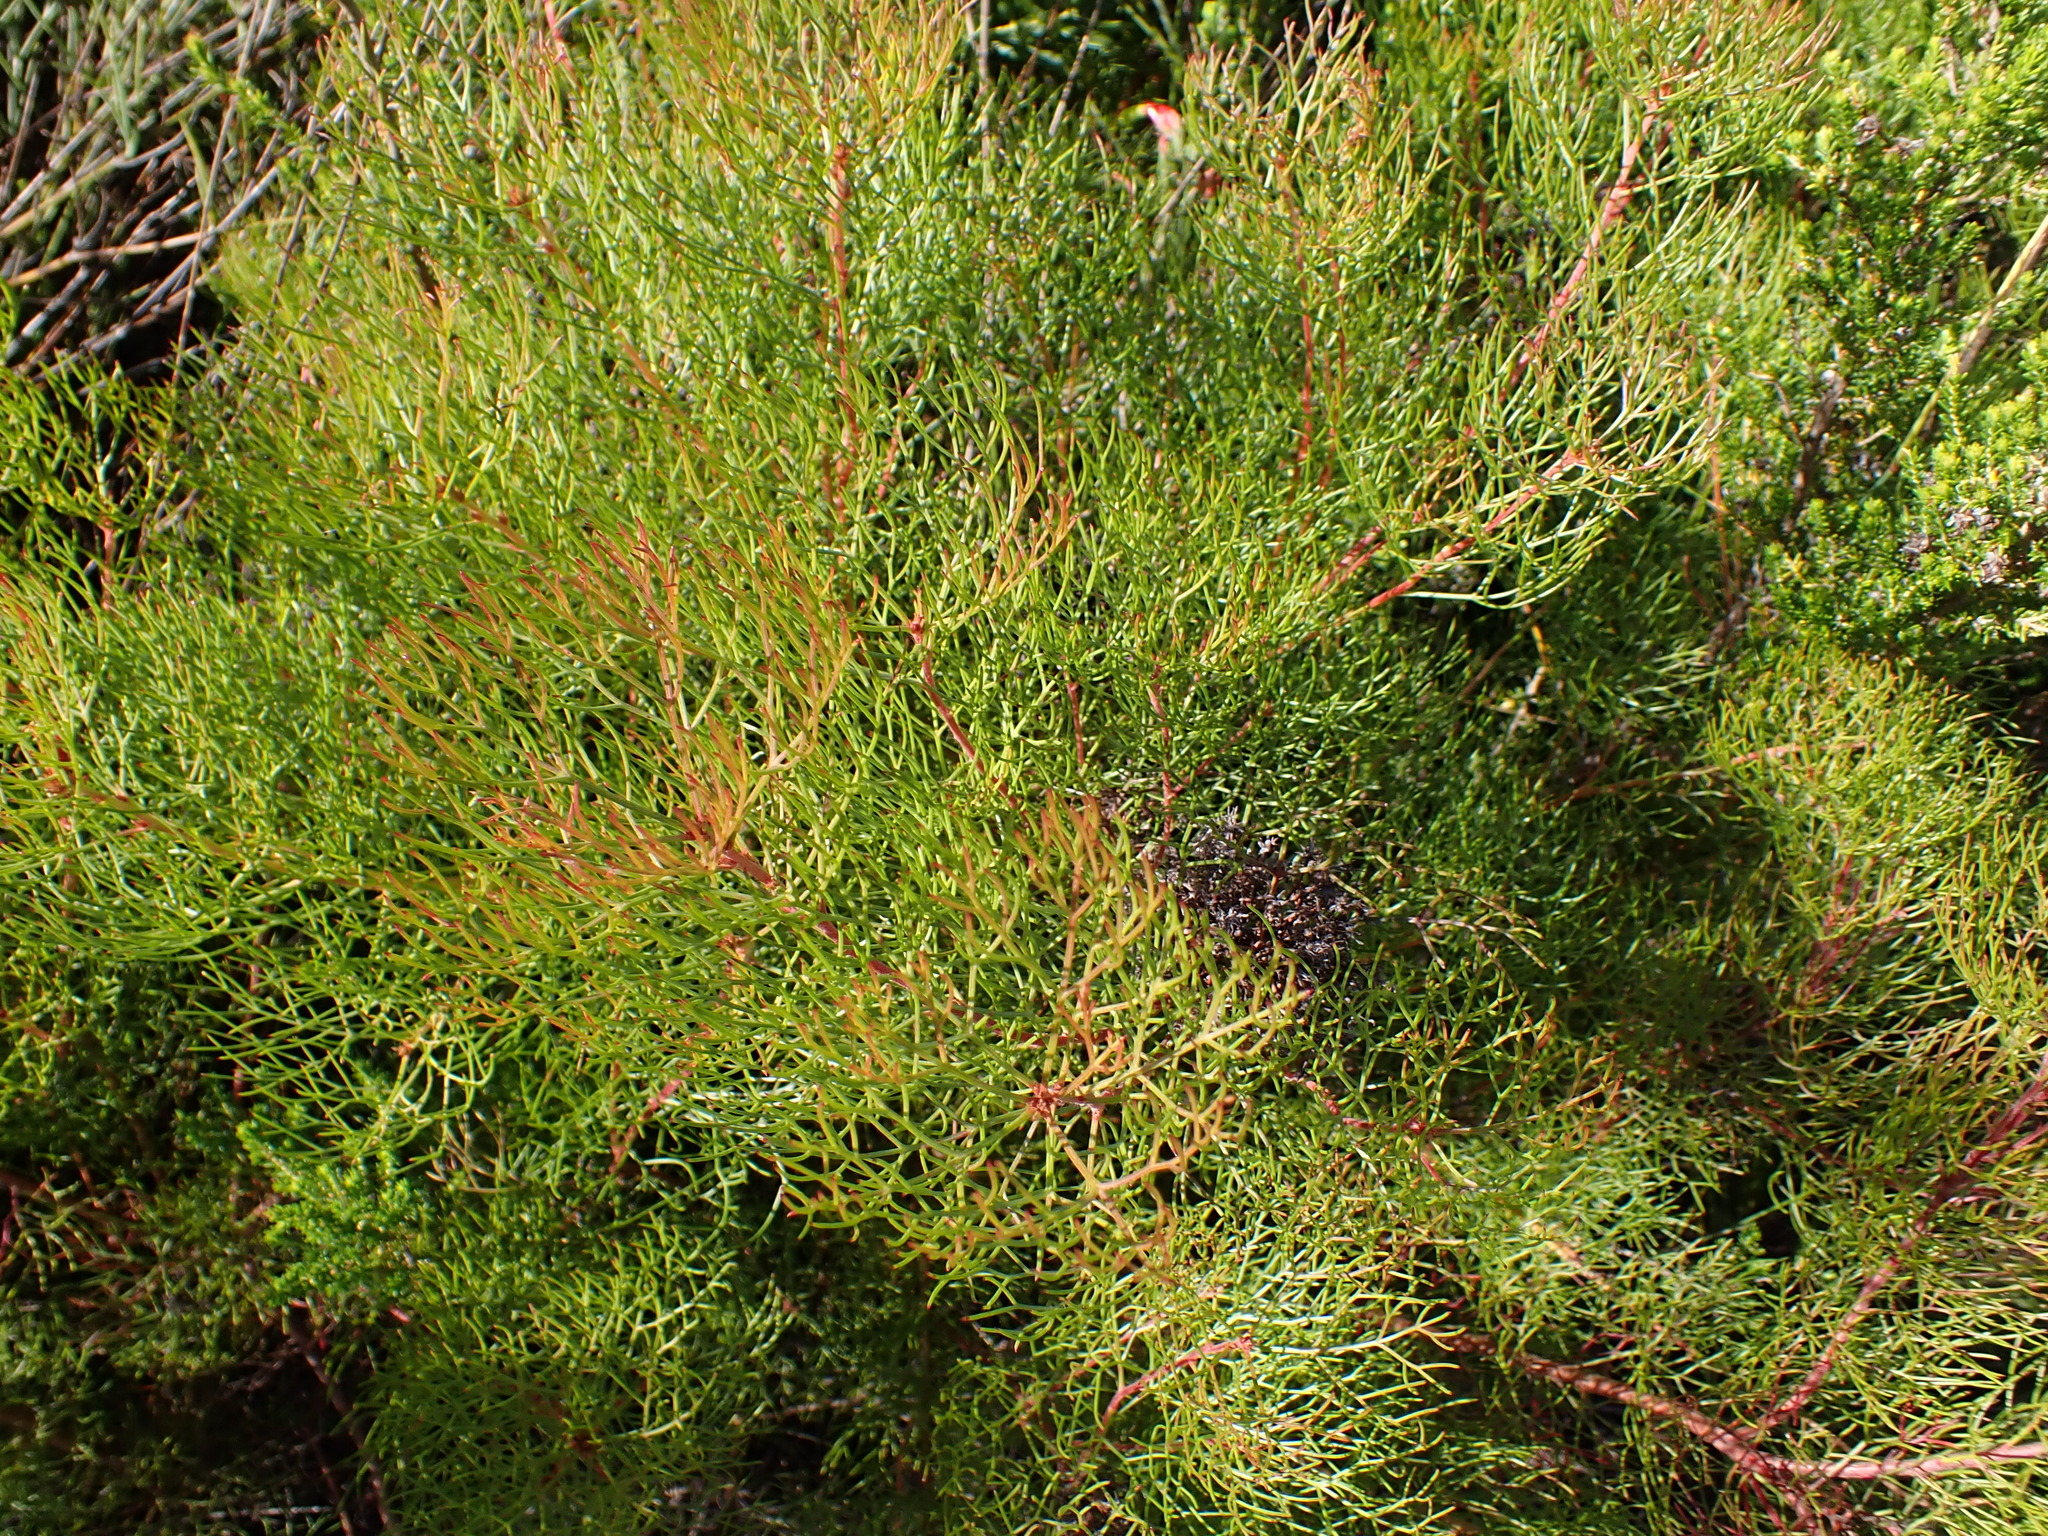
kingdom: Plantae
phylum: Tracheophyta
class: Magnoliopsida
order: Proteales
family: Proteaceae
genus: Serruria
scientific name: Serruria fasciflora
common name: Common pin spiderhead
